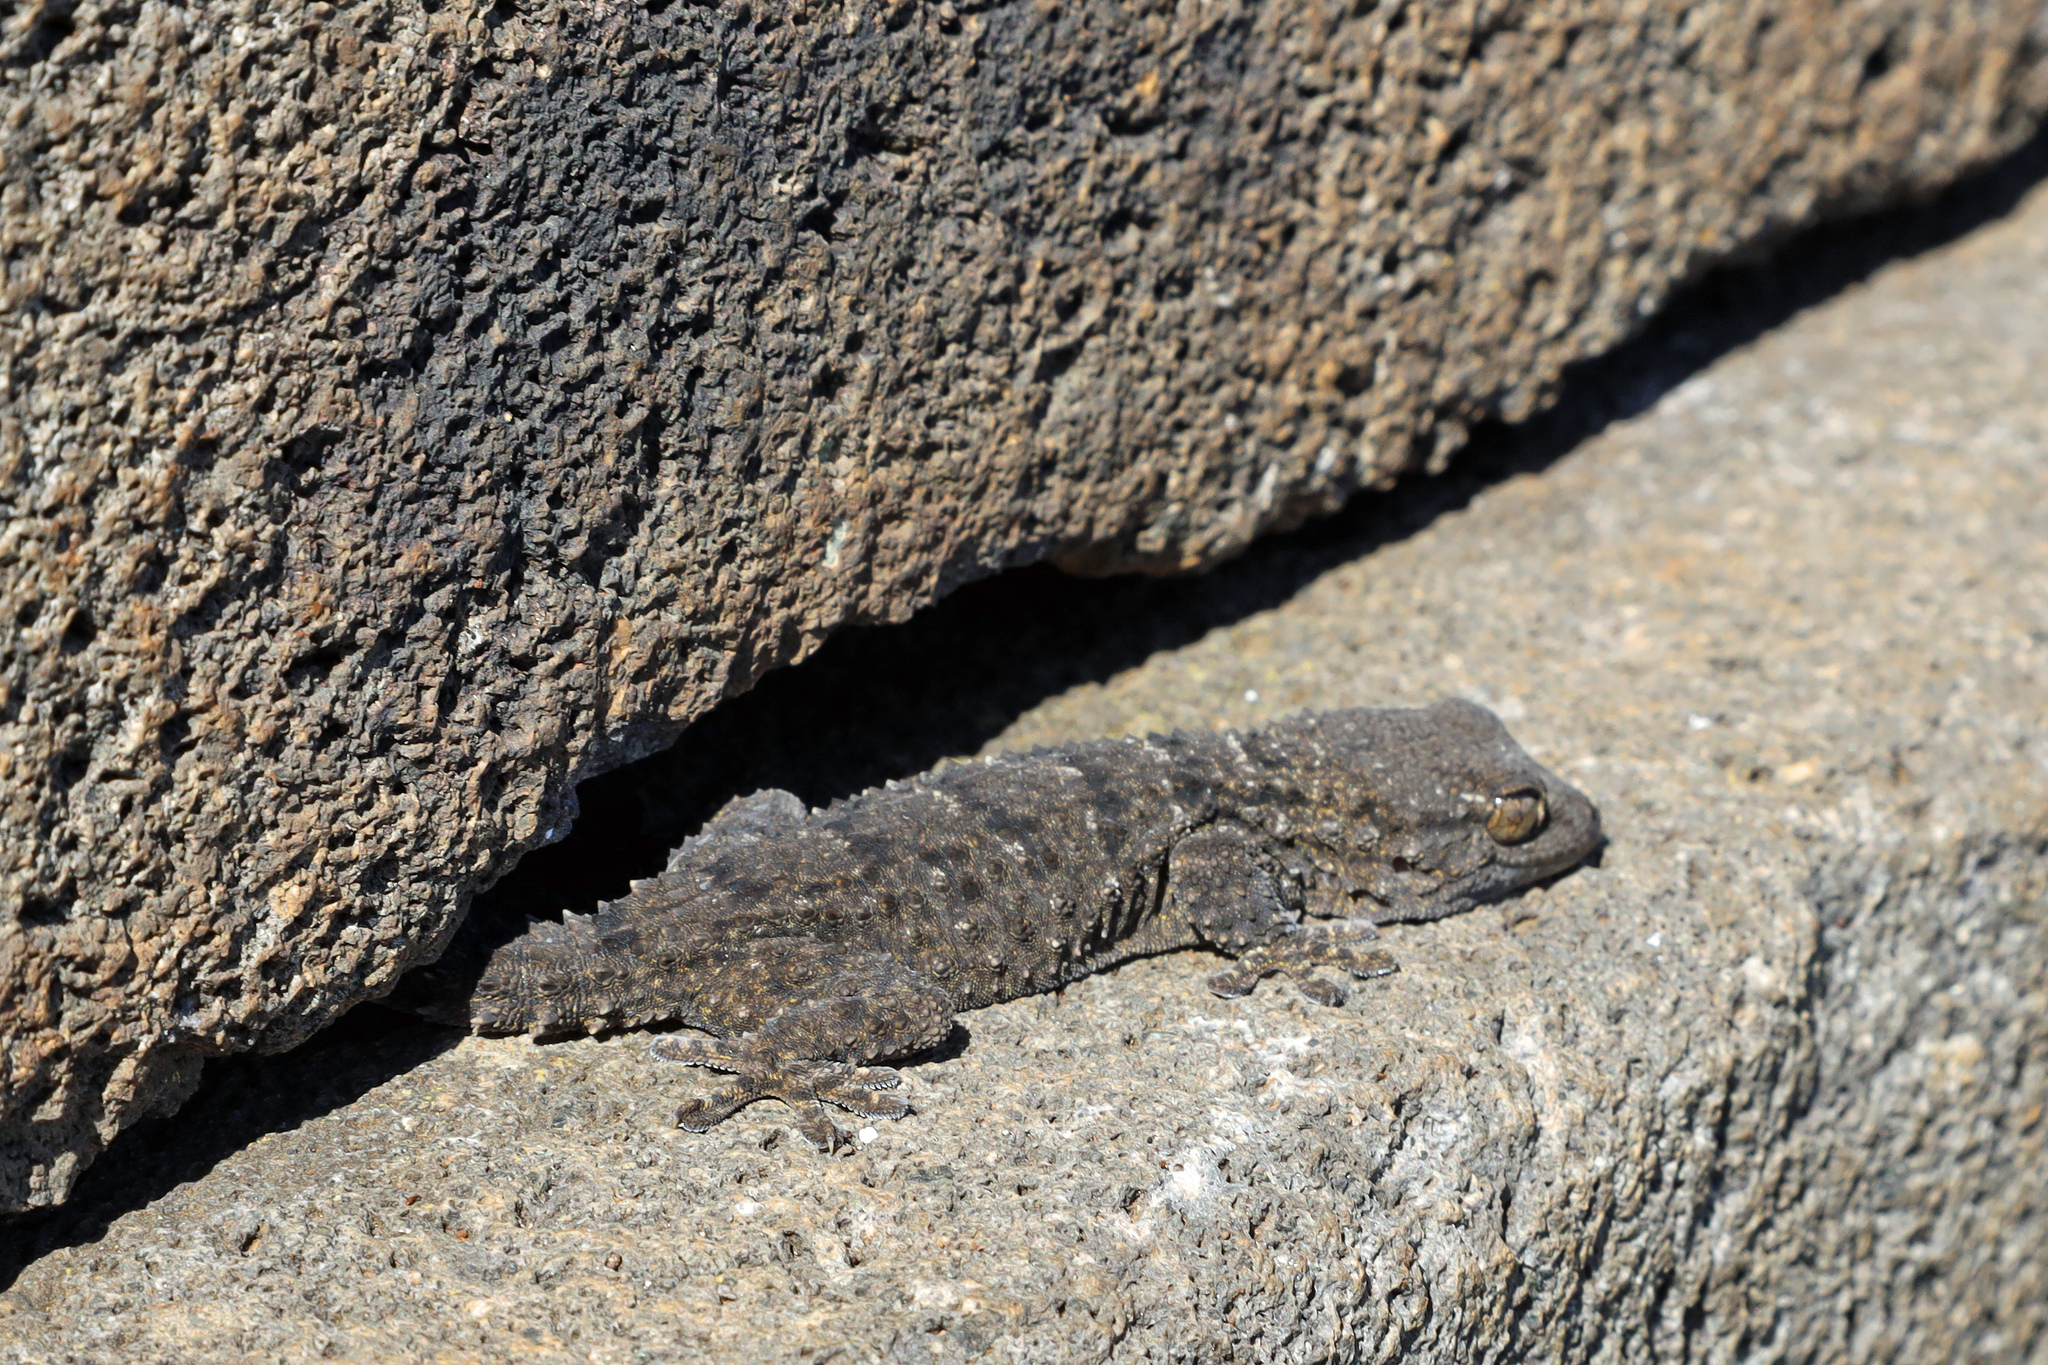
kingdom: Animalia
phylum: Chordata
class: Squamata
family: Phyllodactylidae
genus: Tarentola
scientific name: Tarentola mauritanica
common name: Moorish gecko
